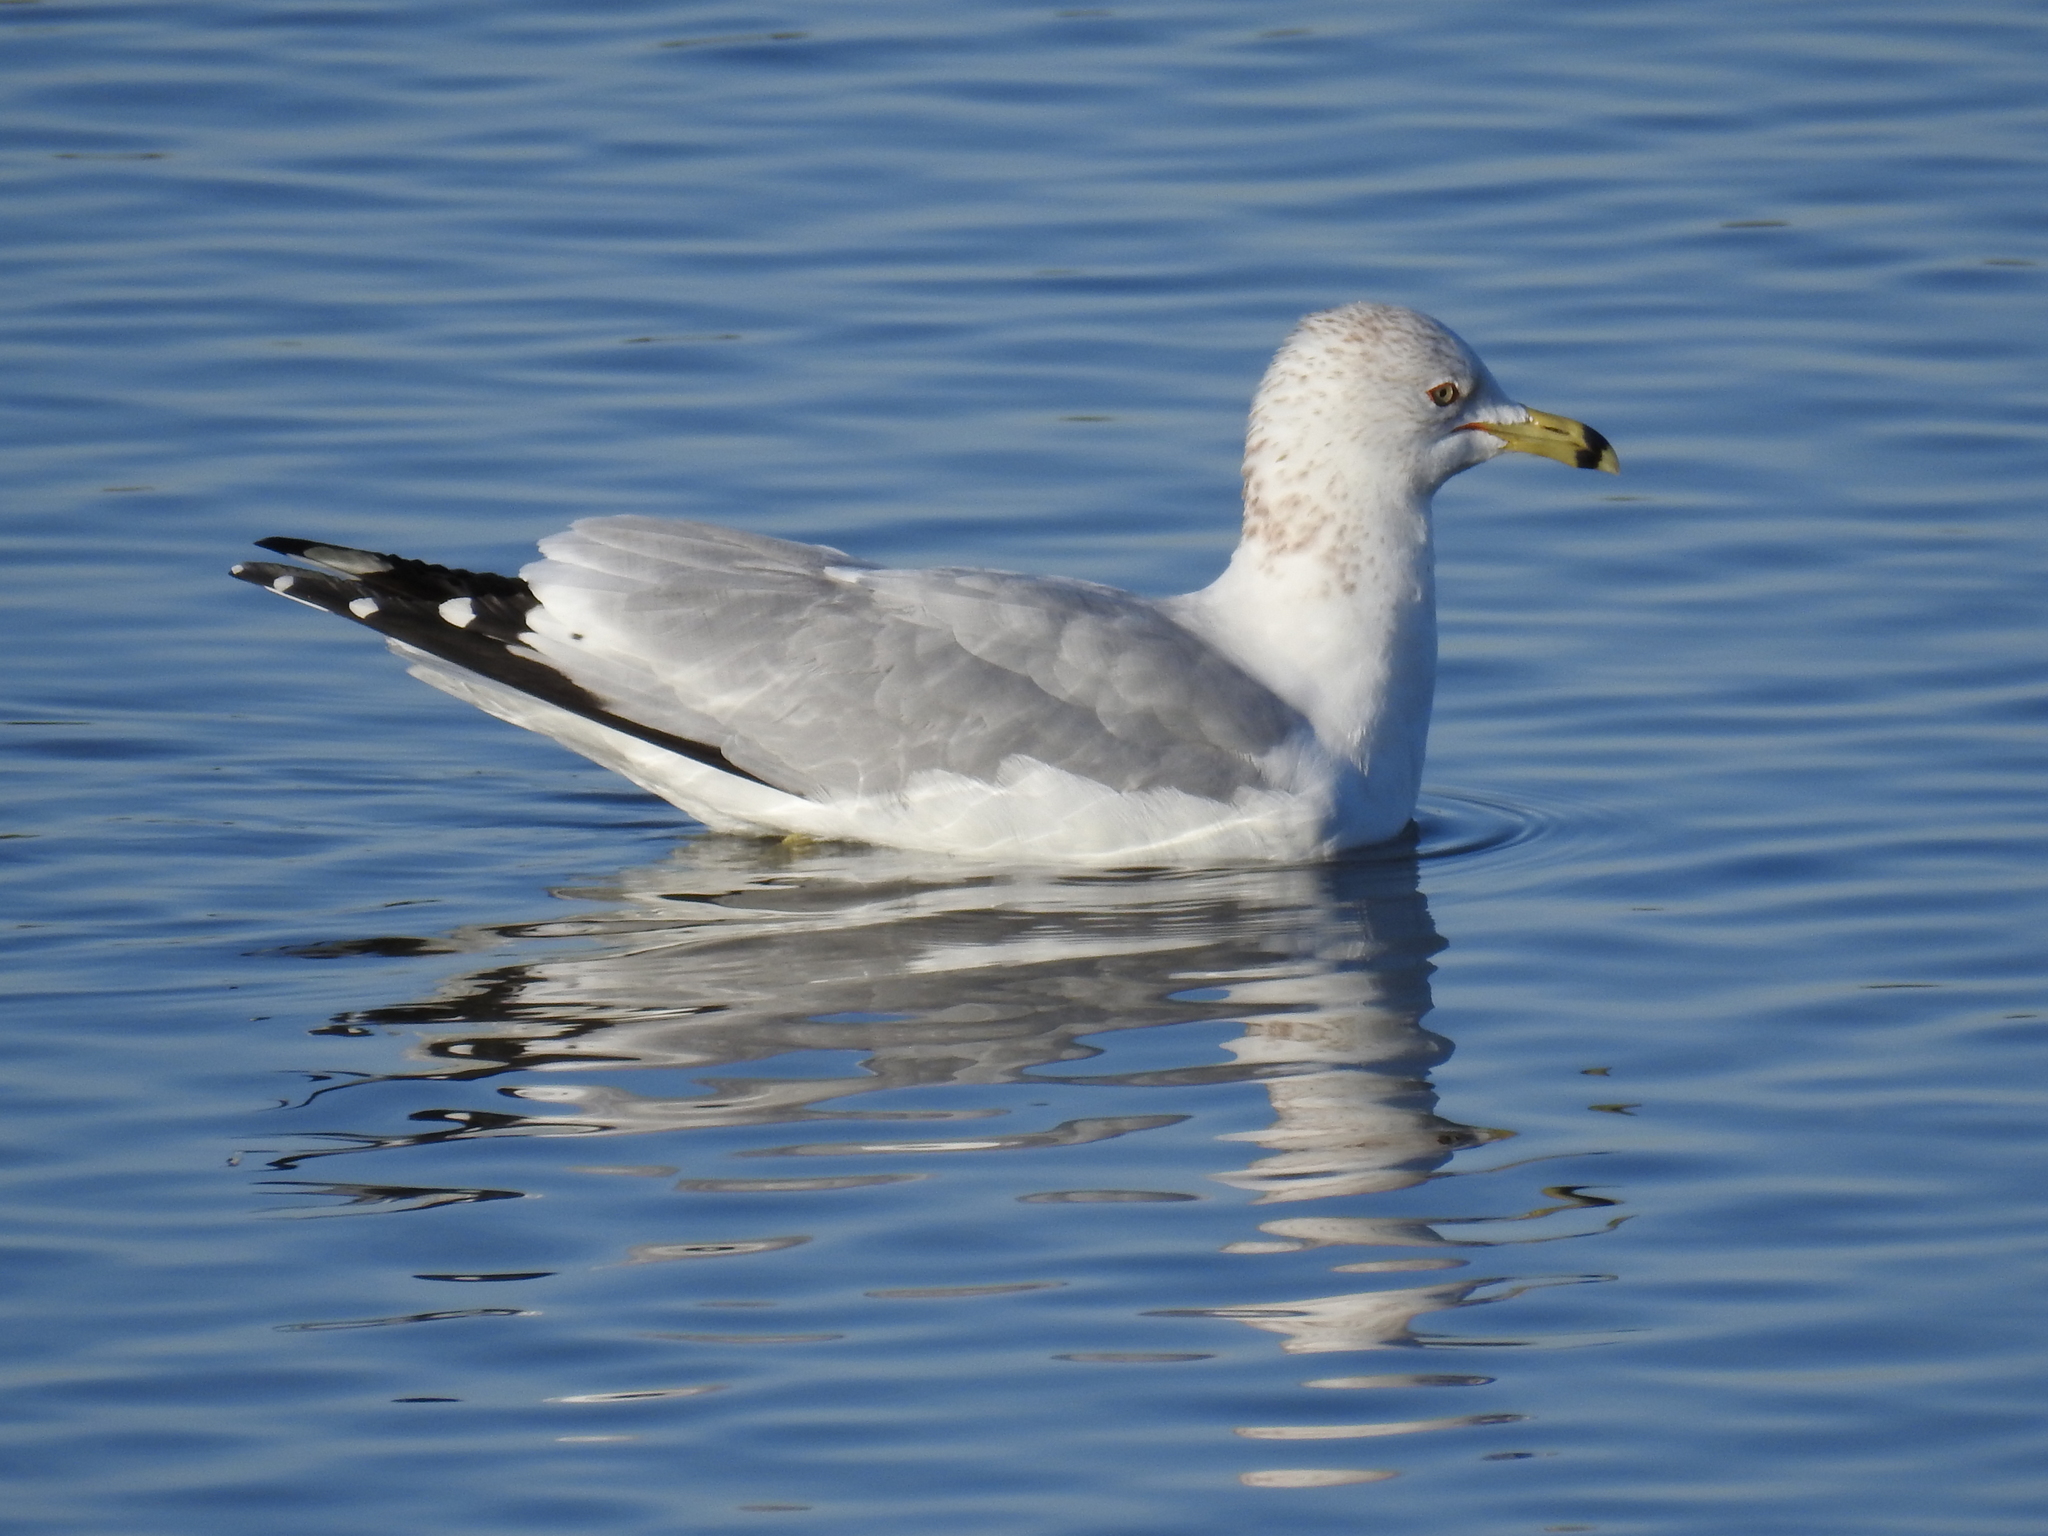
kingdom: Animalia
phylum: Chordata
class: Aves
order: Charadriiformes
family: Laridae
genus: Larus
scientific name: Larus delawarensis
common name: Ring-billed gull
